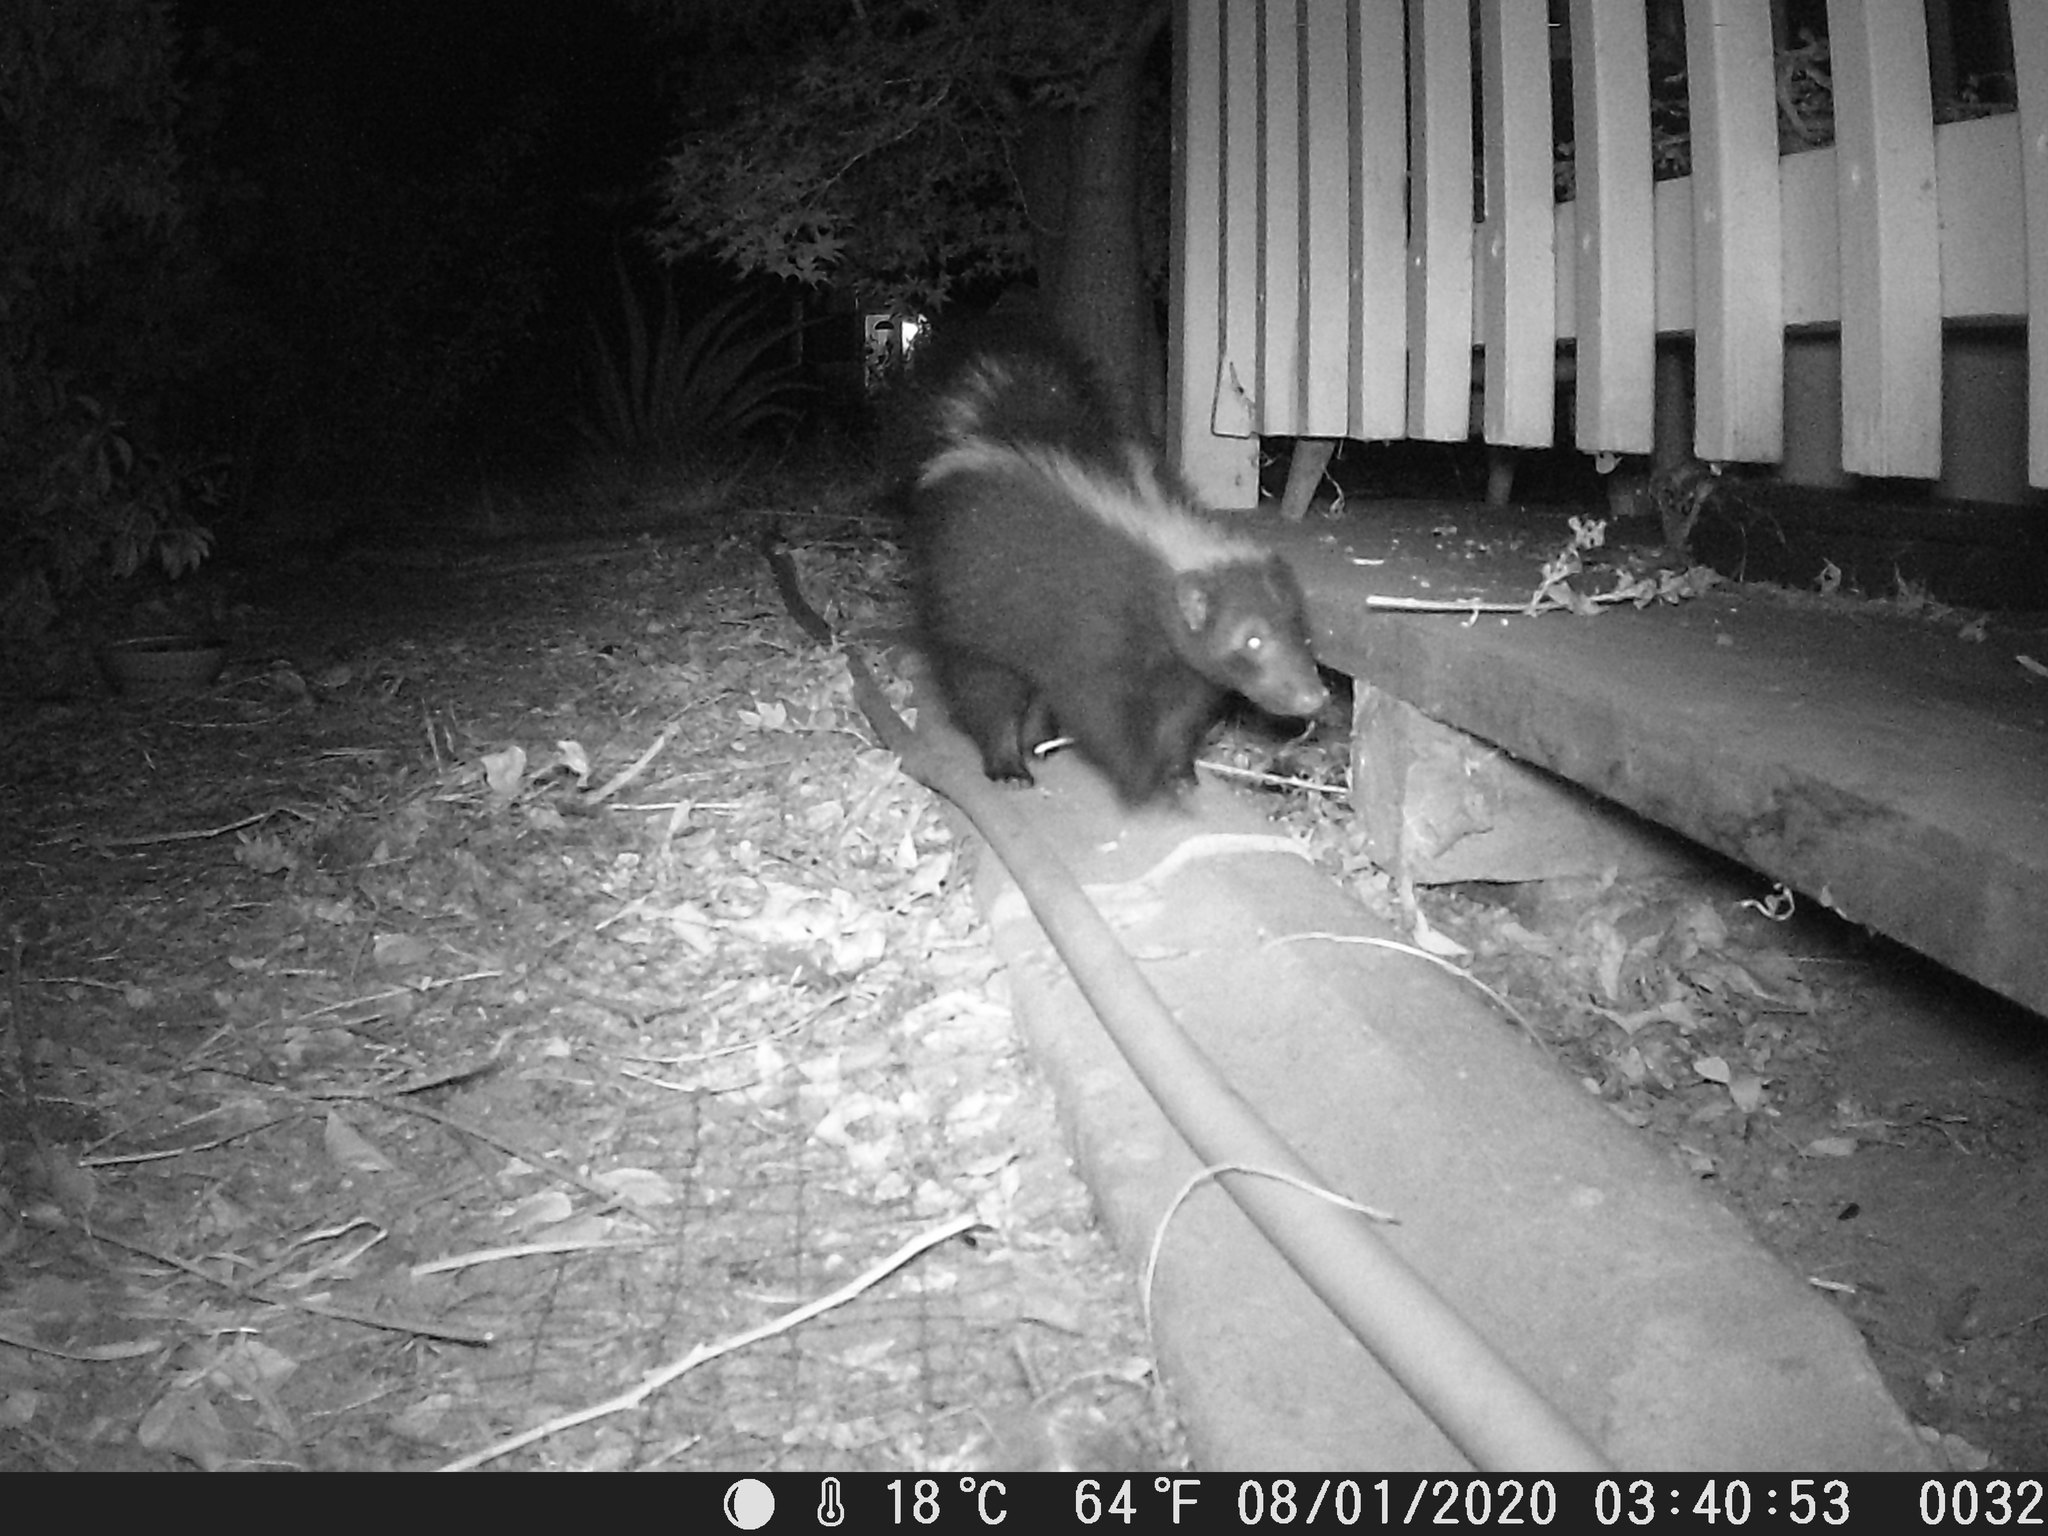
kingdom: Animalia
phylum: Chordata
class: Mammalia
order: Carnivora
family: Mephitidae
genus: Mephitis
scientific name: Mephitis mephitis
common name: Striped skunk
